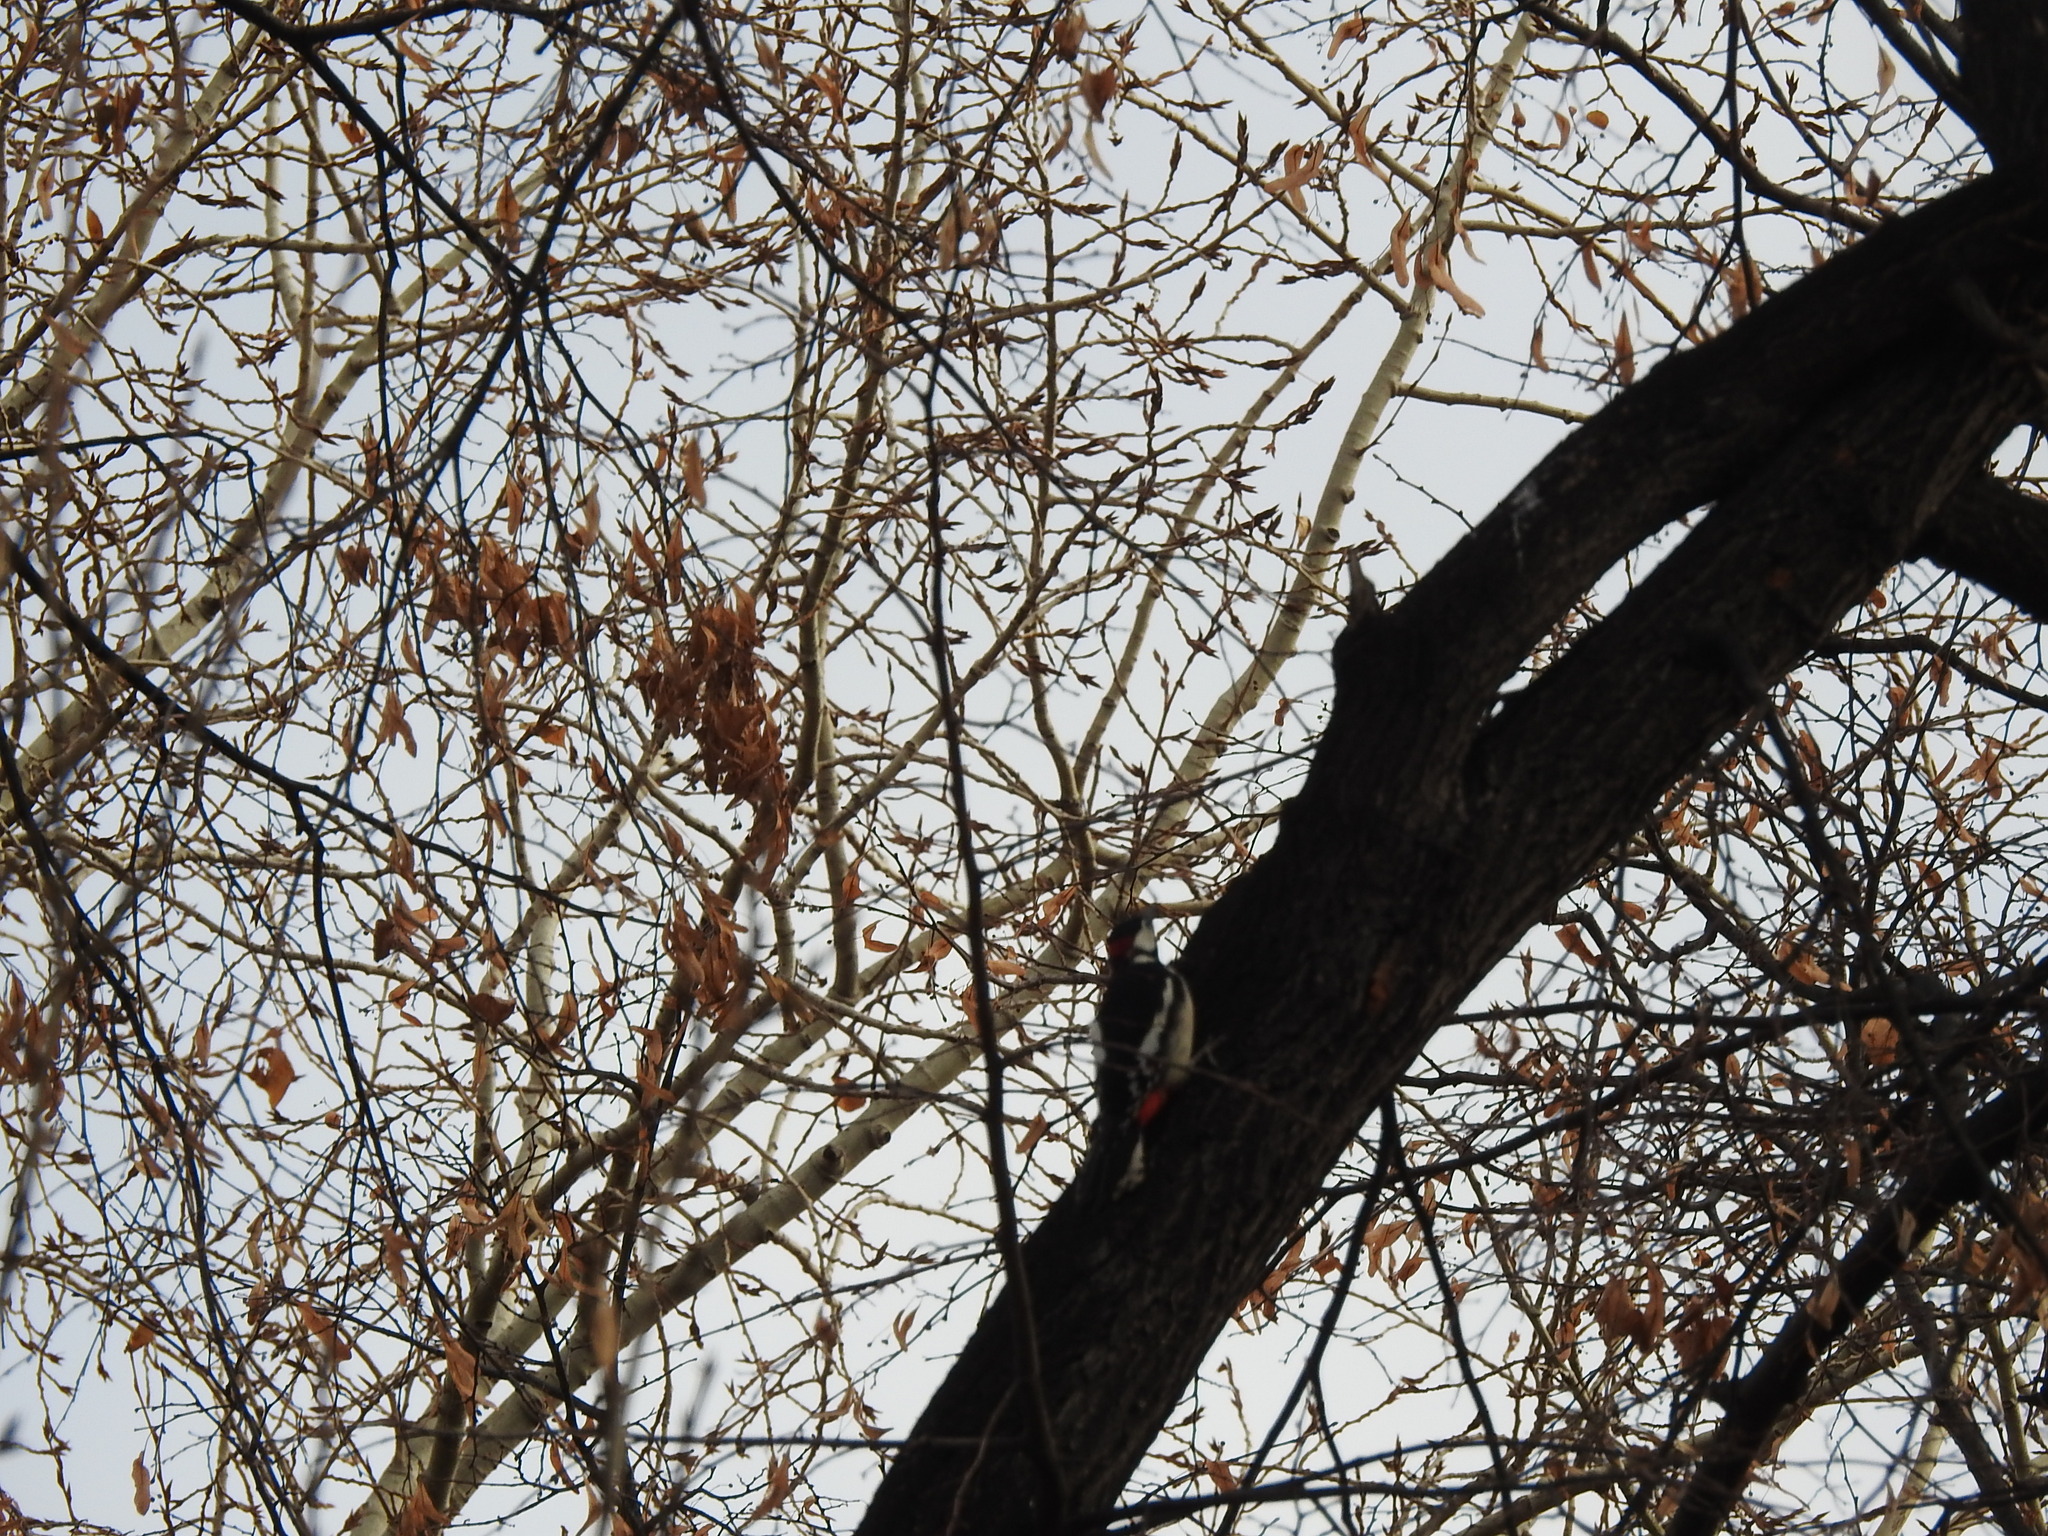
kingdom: Animalia
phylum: Chordata
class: Aves
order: Piciformes
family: Picidae
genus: Dendrocopos
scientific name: Dendrocopos major
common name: Great spotted woodpecker
